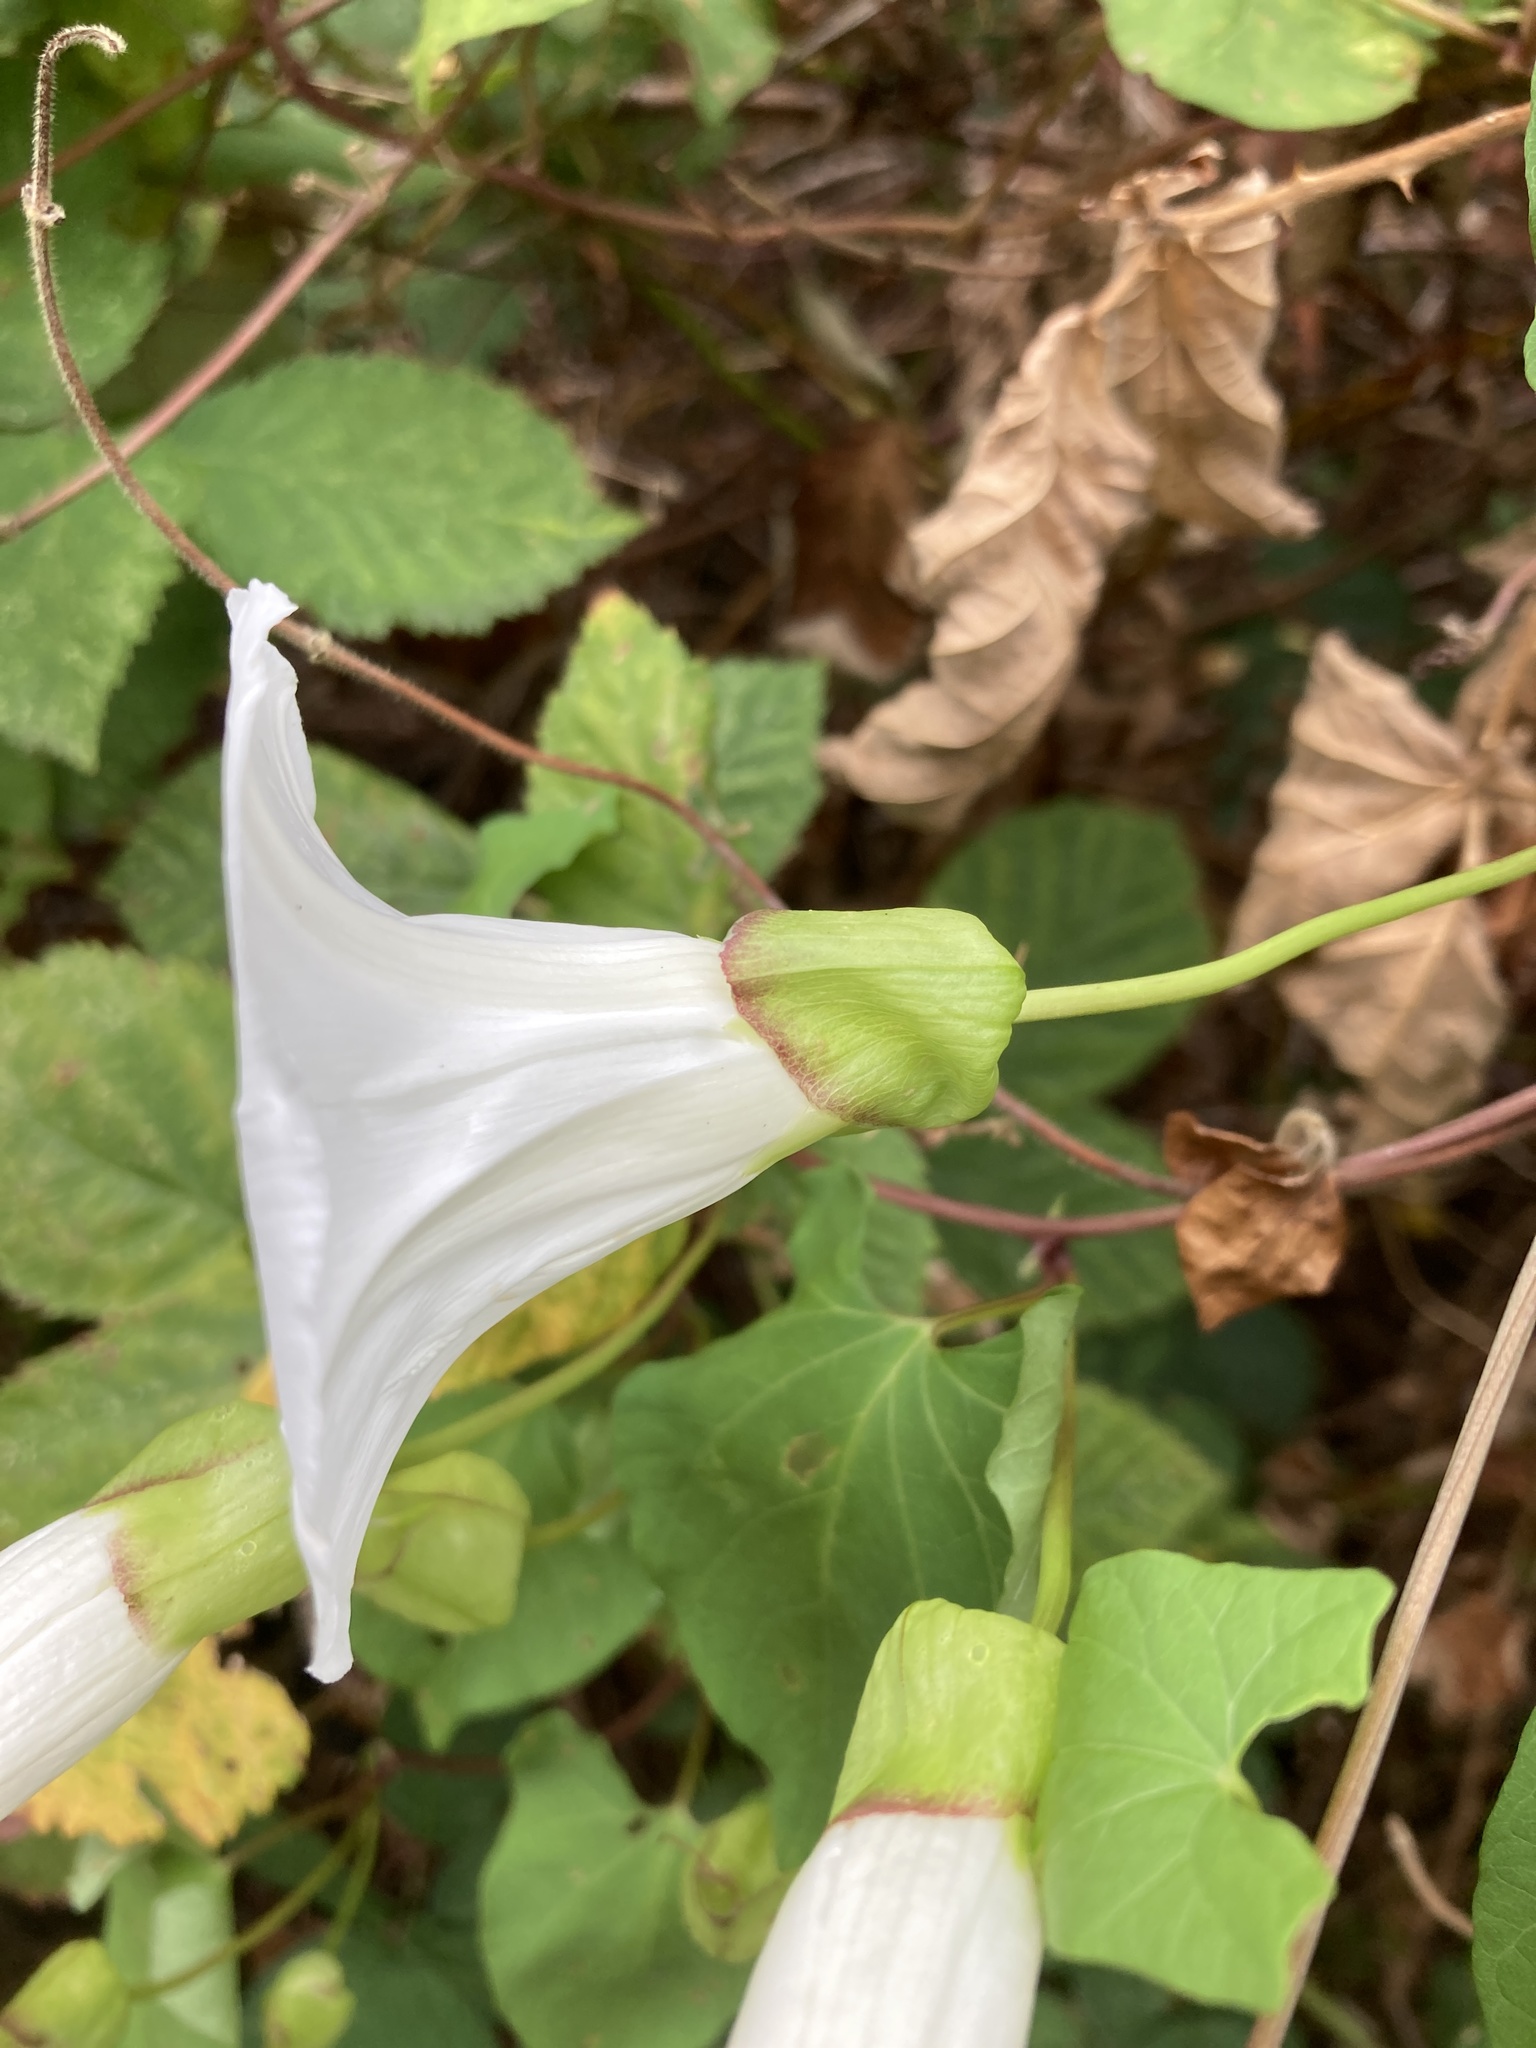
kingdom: Plantae
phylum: Tracheophyta
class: Magnoliopsida
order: Solanales
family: Convolvulaceae
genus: Calystegia
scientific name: Calystegia silvatica
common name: Large bindweed
